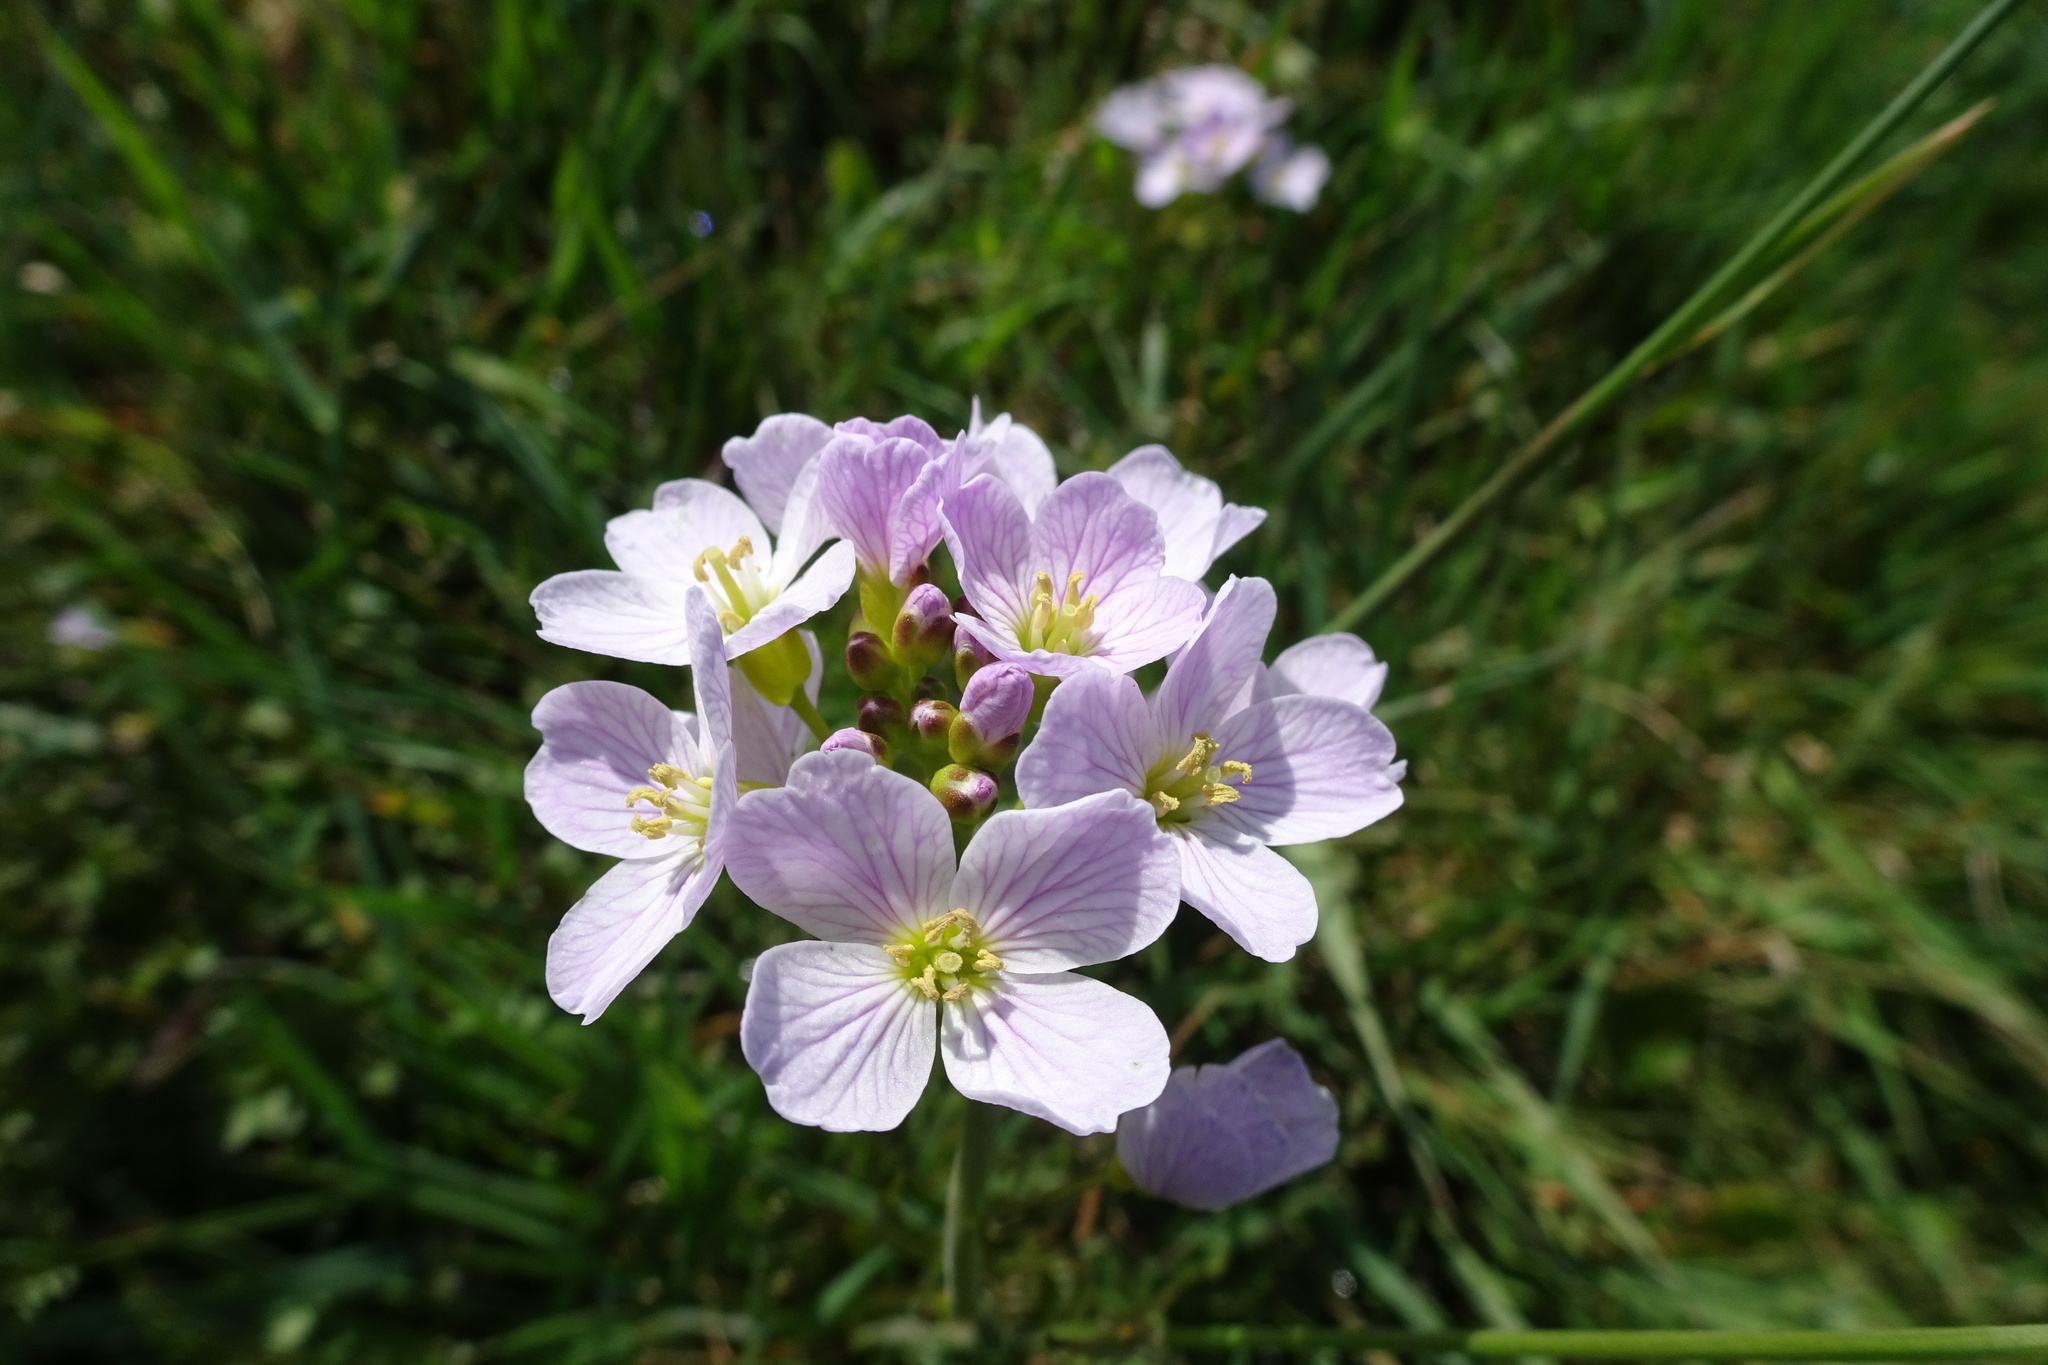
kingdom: Plantae
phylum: Tracheophyta
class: Magnoliopsida
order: Brassicales
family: Brassicaceae
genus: Cardamine
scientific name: Cardamine pratensis
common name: Cuckoo flower
